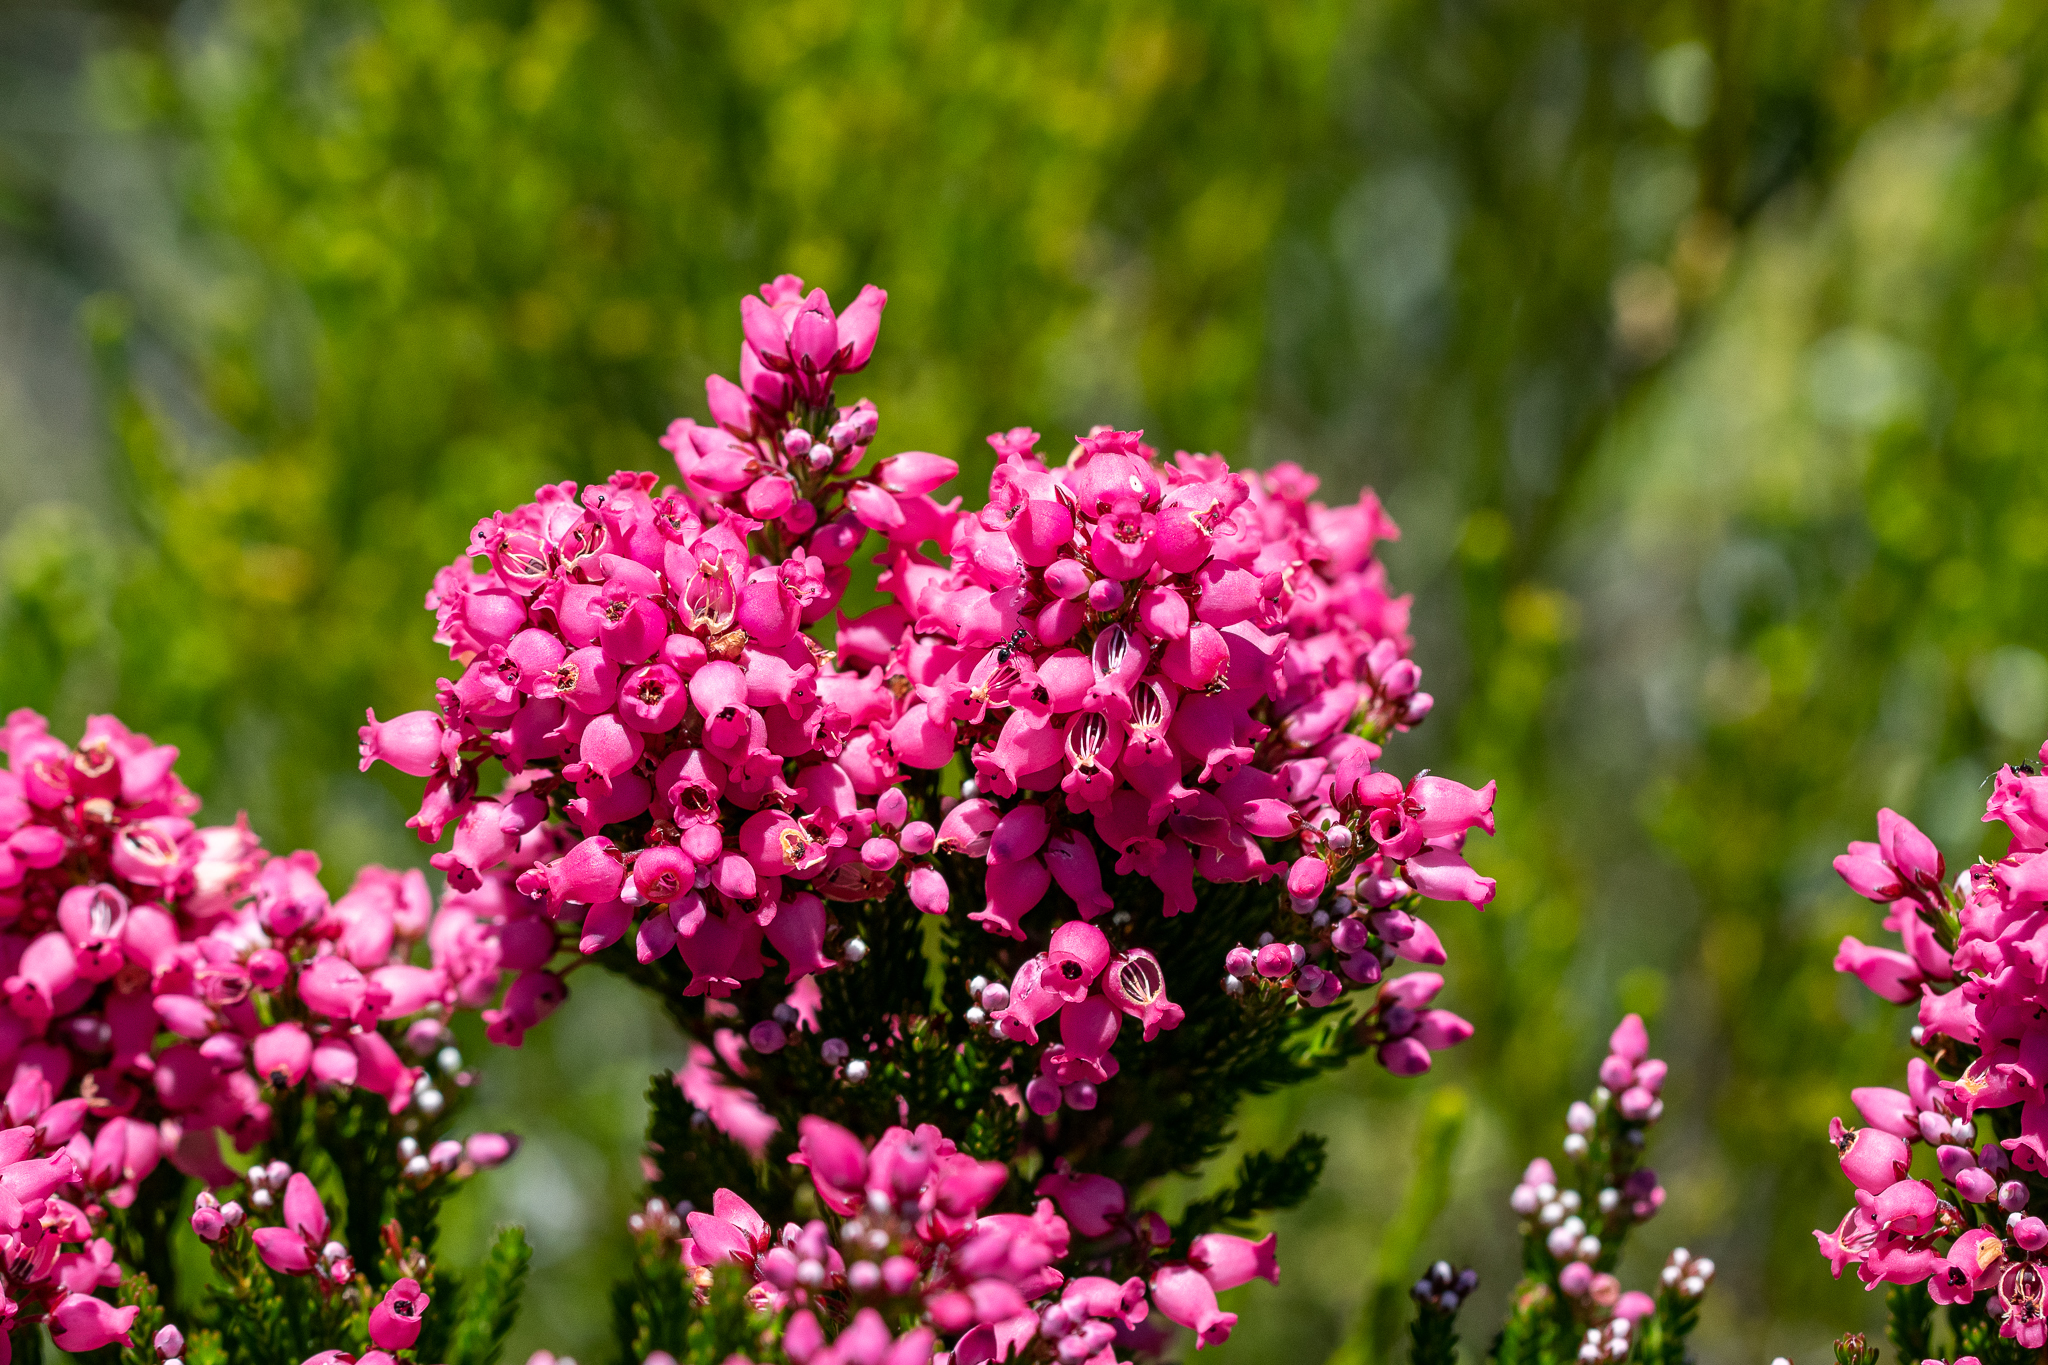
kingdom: Plantae
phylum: Tracheophyta
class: Magnoliopsida
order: Ericales
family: Ericaceae
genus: Erica
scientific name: Erica tenella
